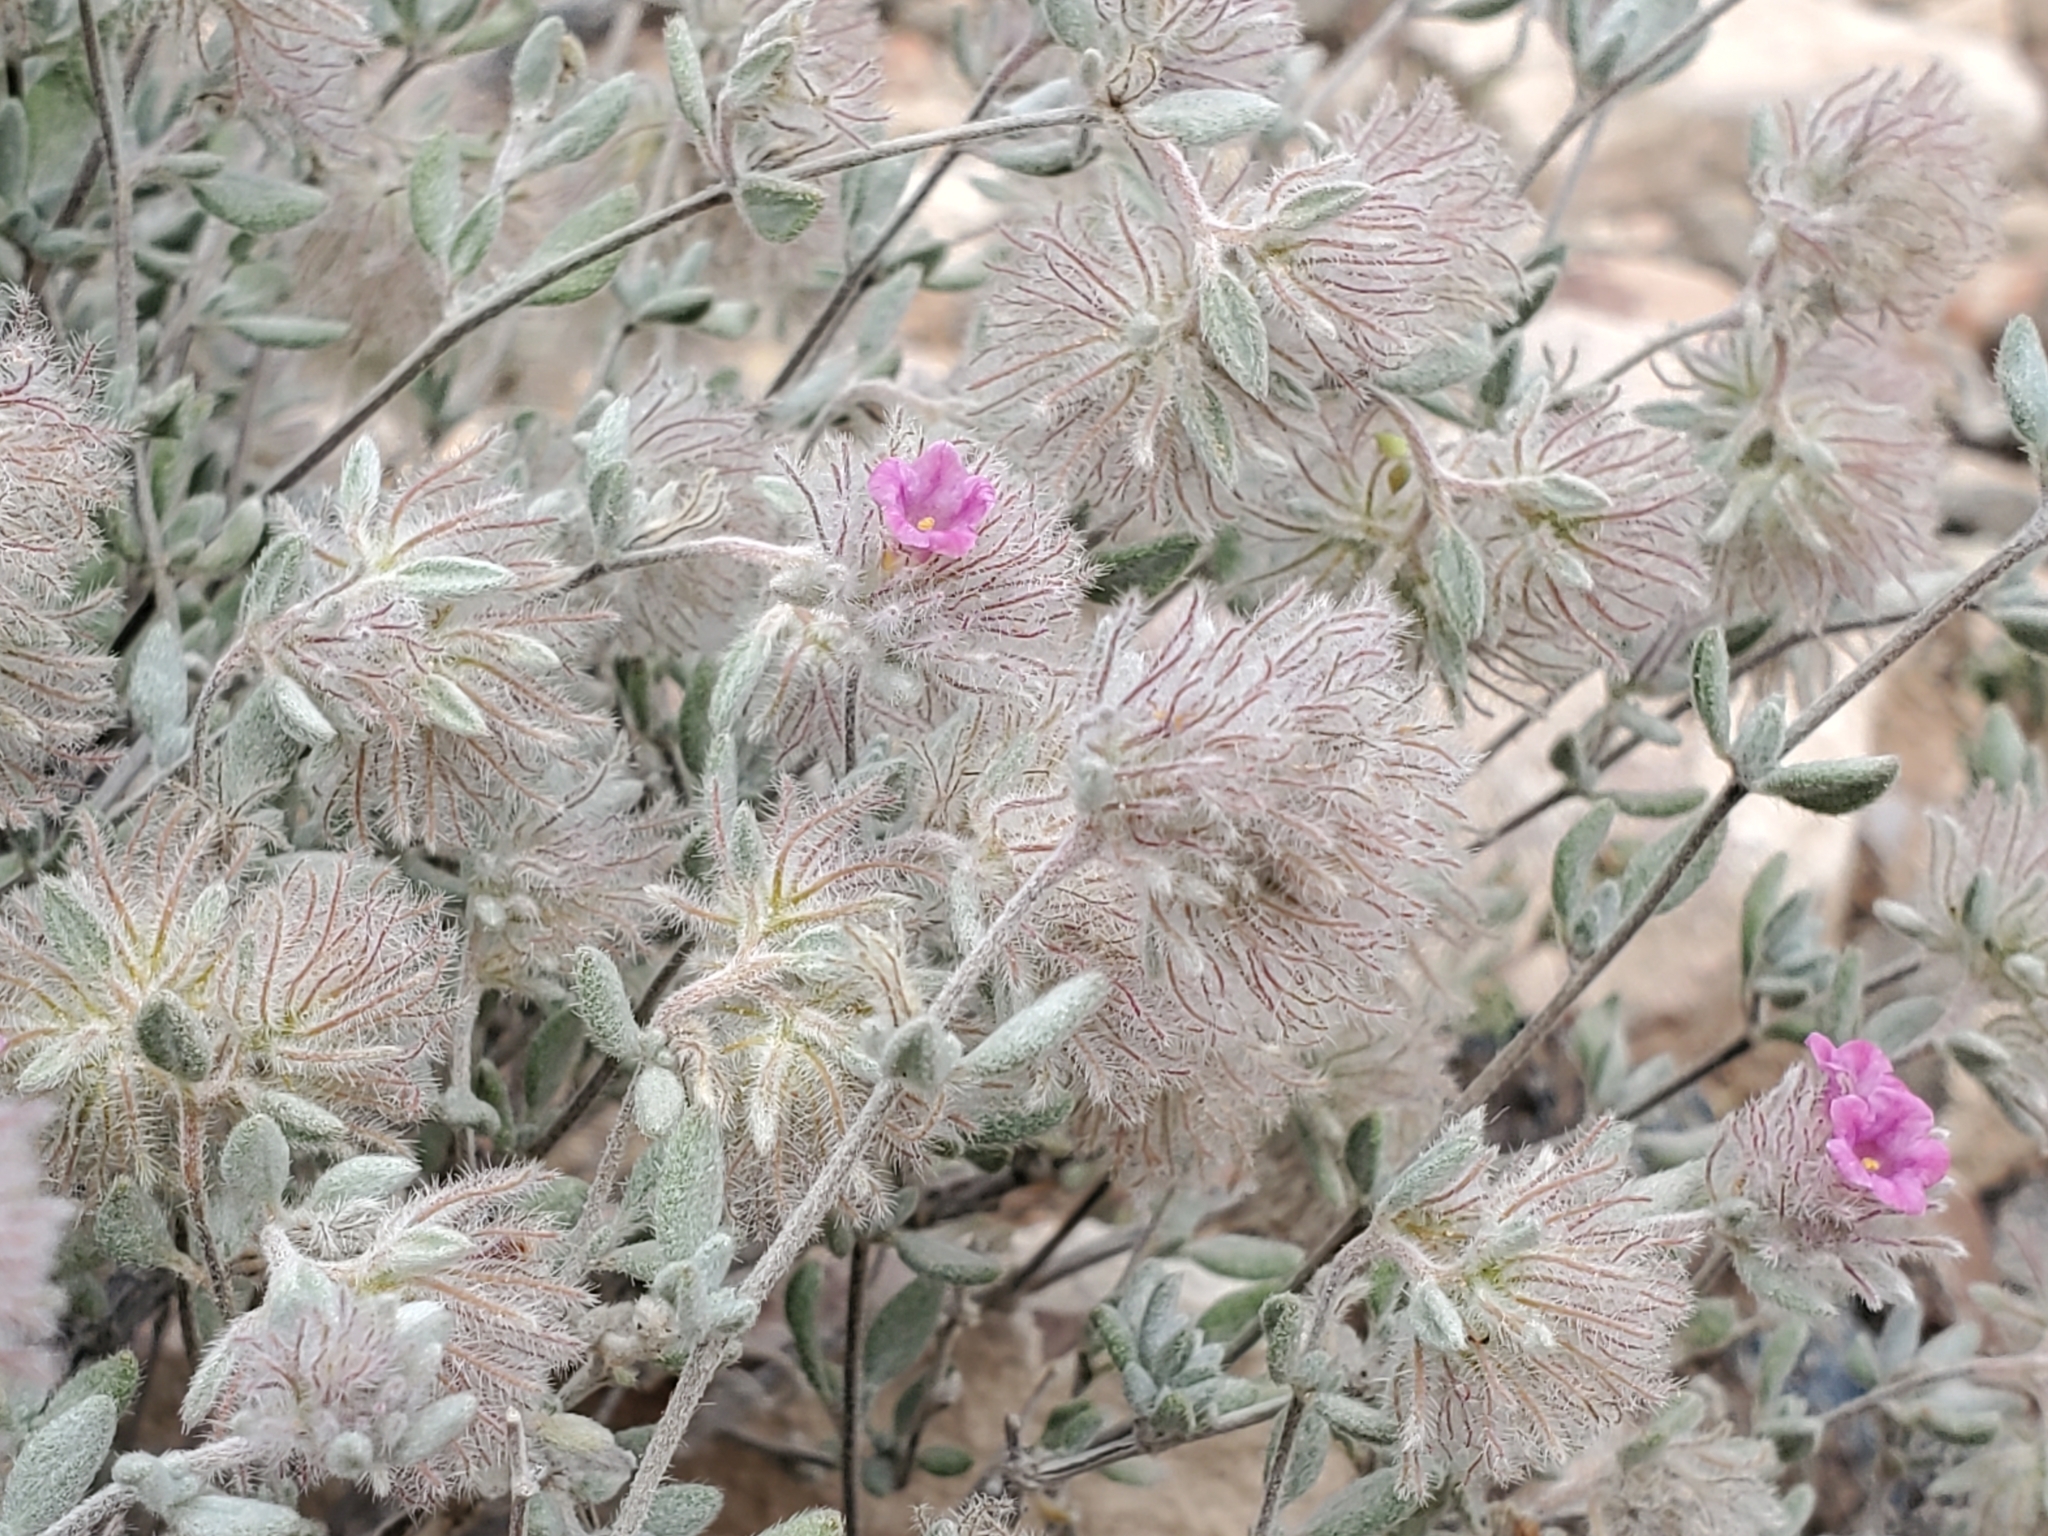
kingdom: Plantae
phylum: Tracheophyta
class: Magnoliopsida
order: Boraginales
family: Ehretiaceae
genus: Tiquilia
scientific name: Tiquilia greggii
